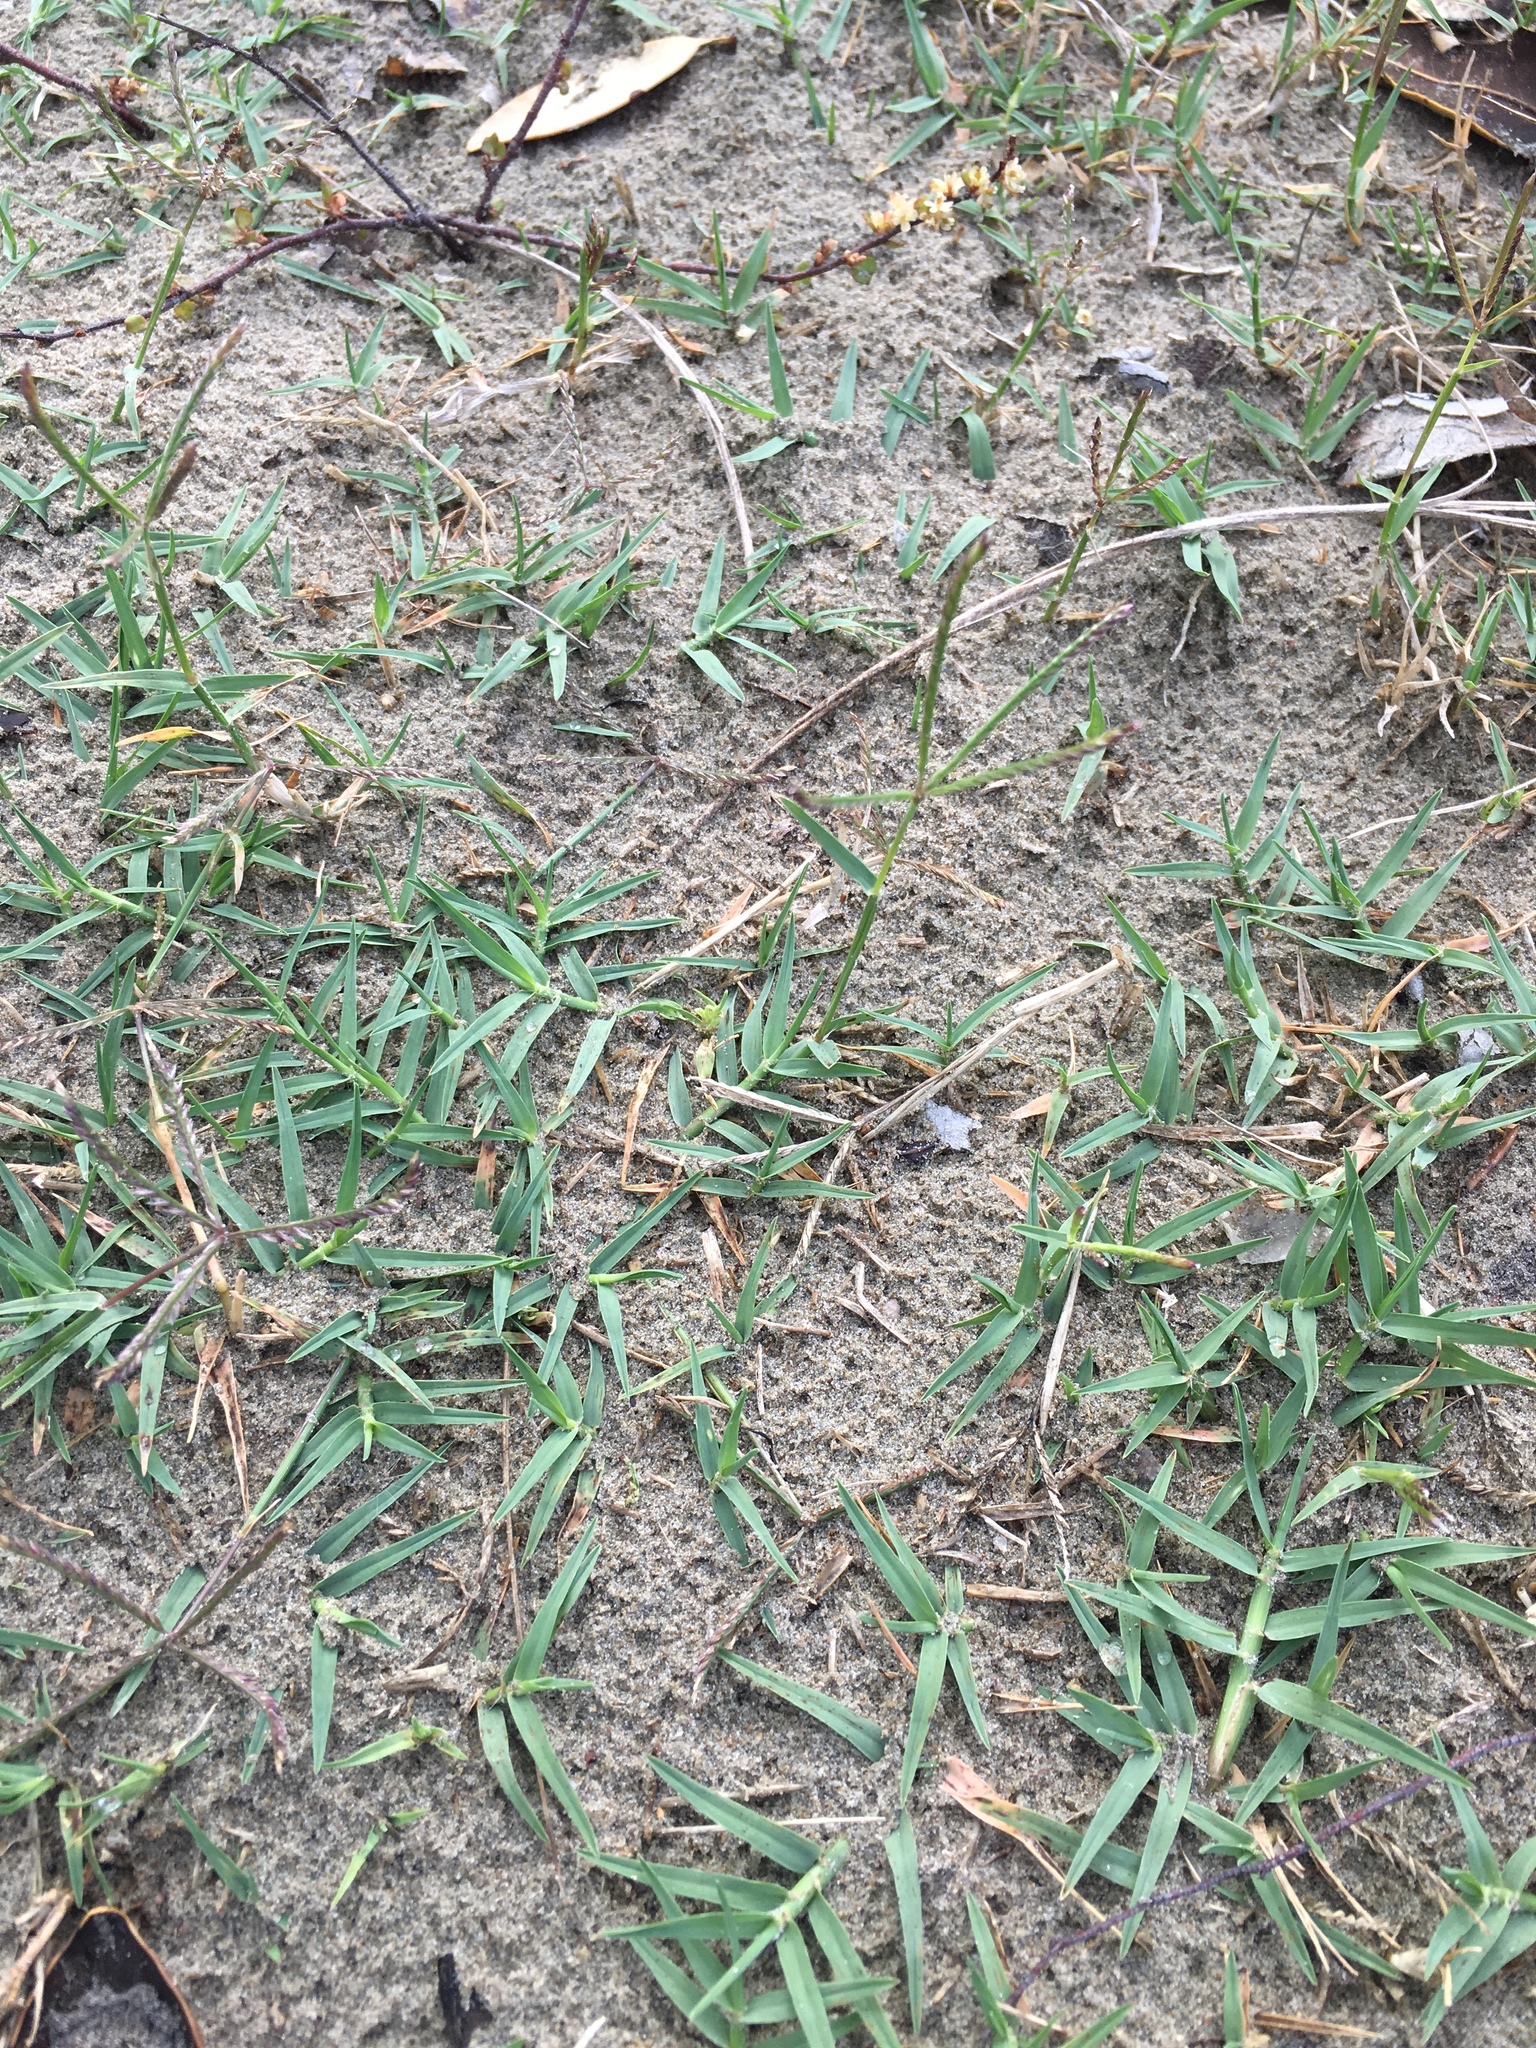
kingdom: Plantae
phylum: Tracheophyta
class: Liliopsida
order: Poales
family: Poaceae
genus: Cynodon
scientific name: Cynodon dactylon
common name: Bermuda grass
